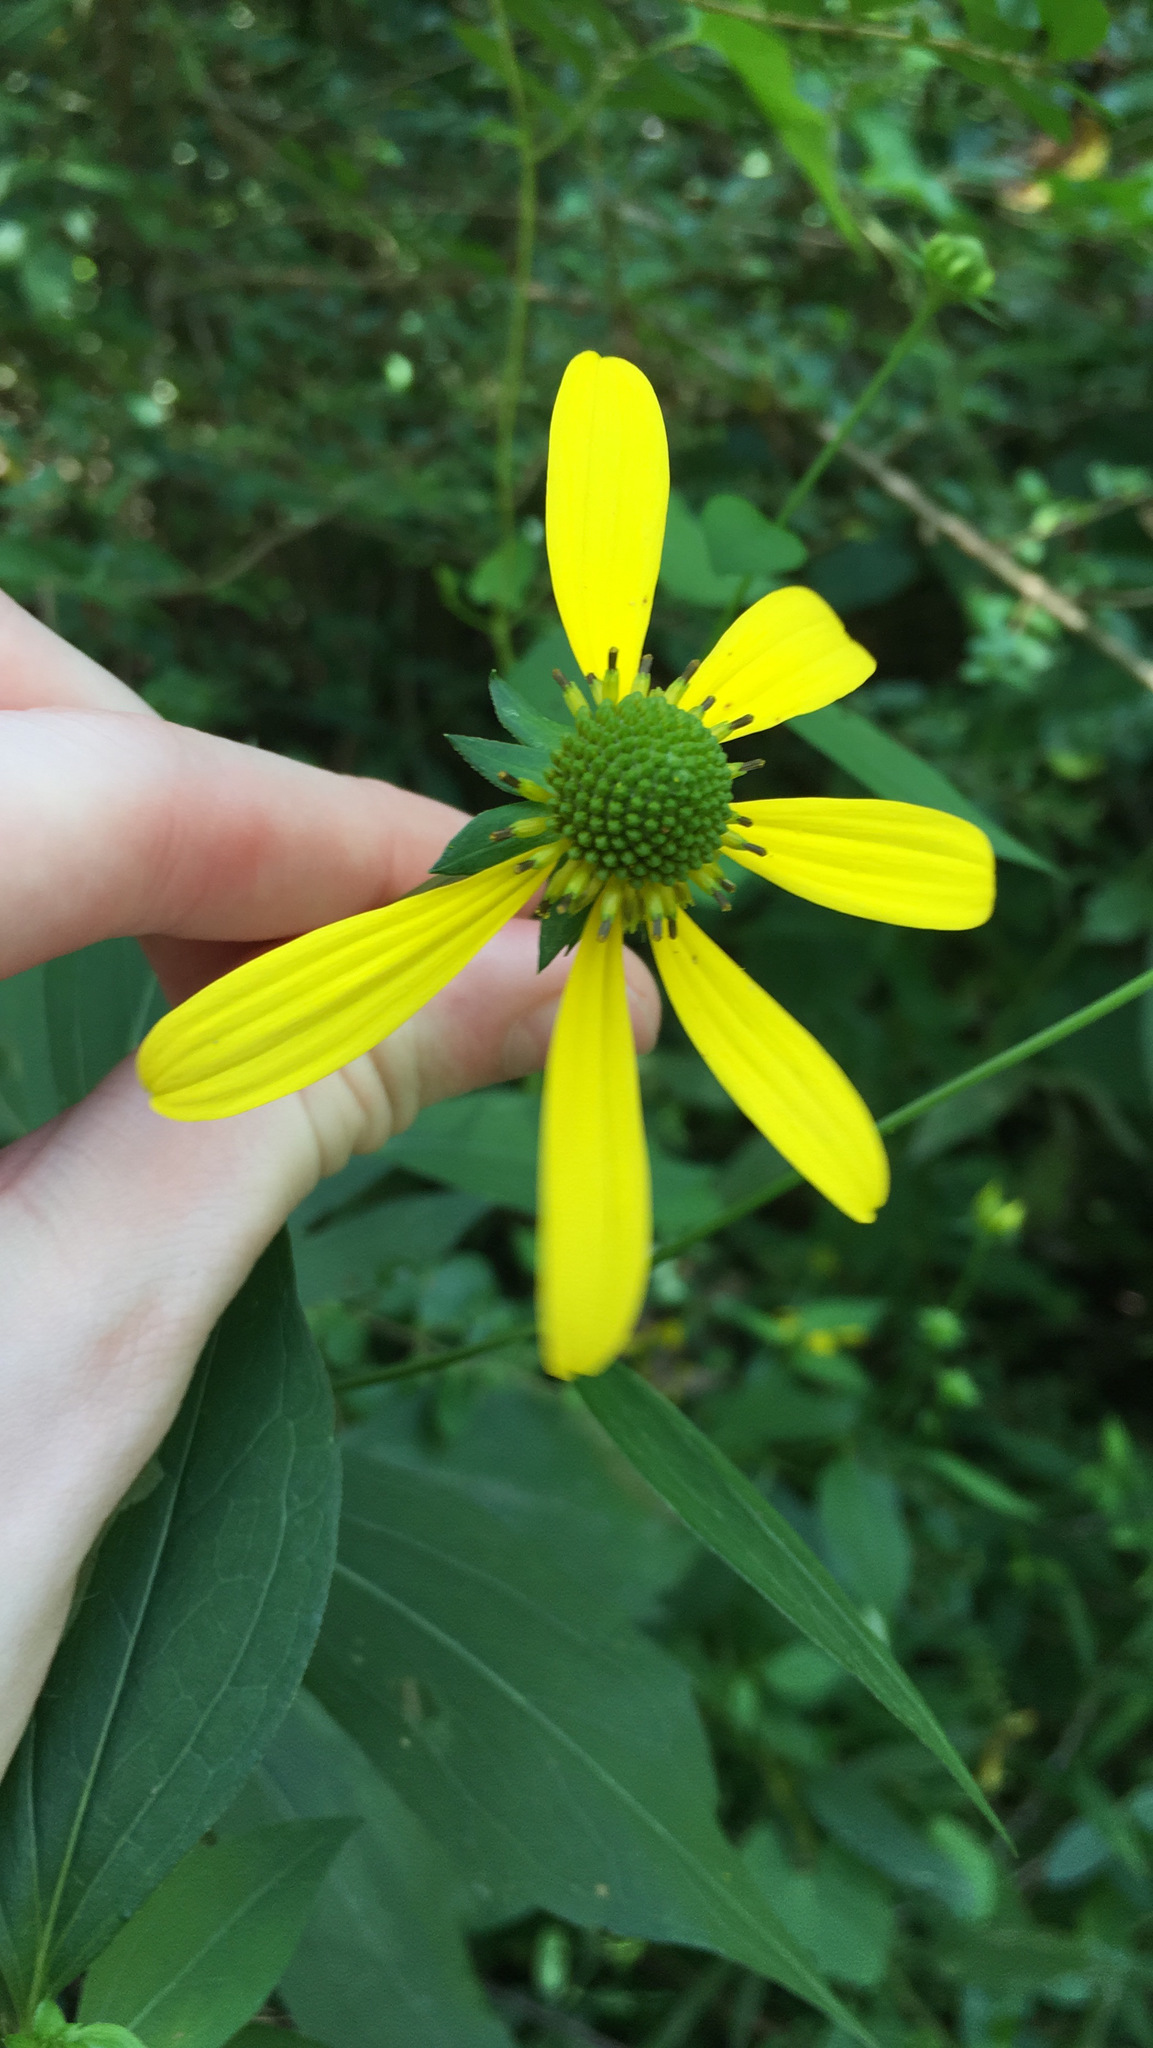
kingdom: Plantae
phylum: Tracheophyta
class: Magnoliopsida
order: Asterales
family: Asteraceae
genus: Rudbeckia
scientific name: Rudbeckia laciniata
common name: Coneflower
